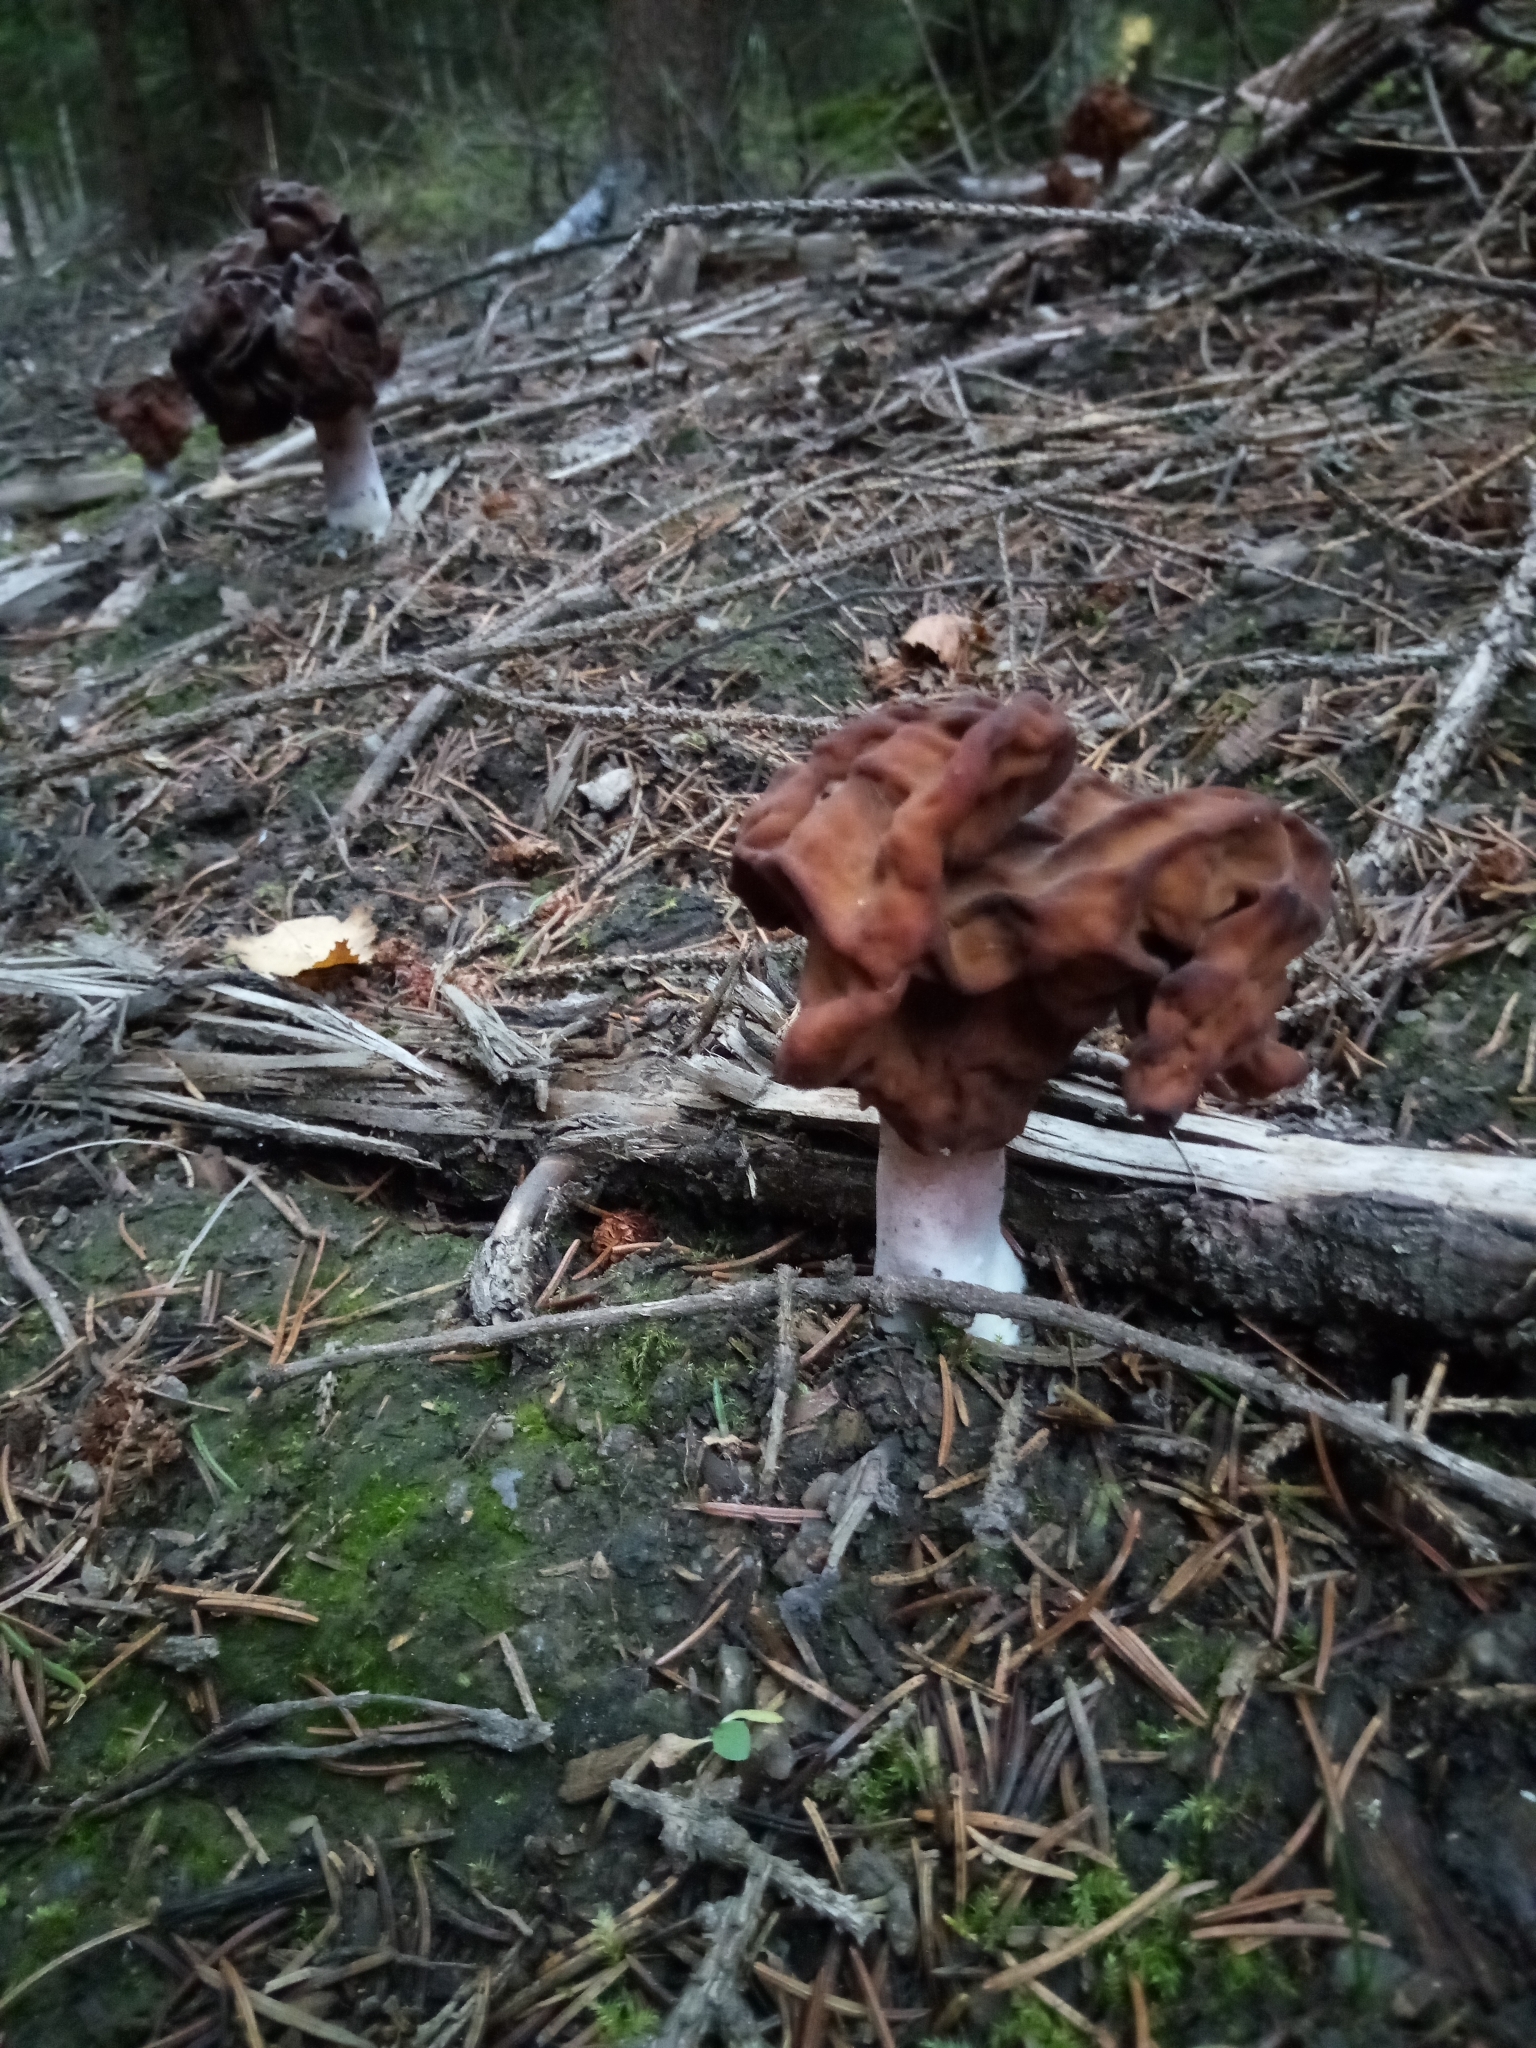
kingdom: Fungi
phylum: Ascomycota
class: Pezizomycetes
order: Pezizales
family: Discinaceae
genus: Gyromitra
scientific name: Gyromitra infula
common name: Pouched false morel
